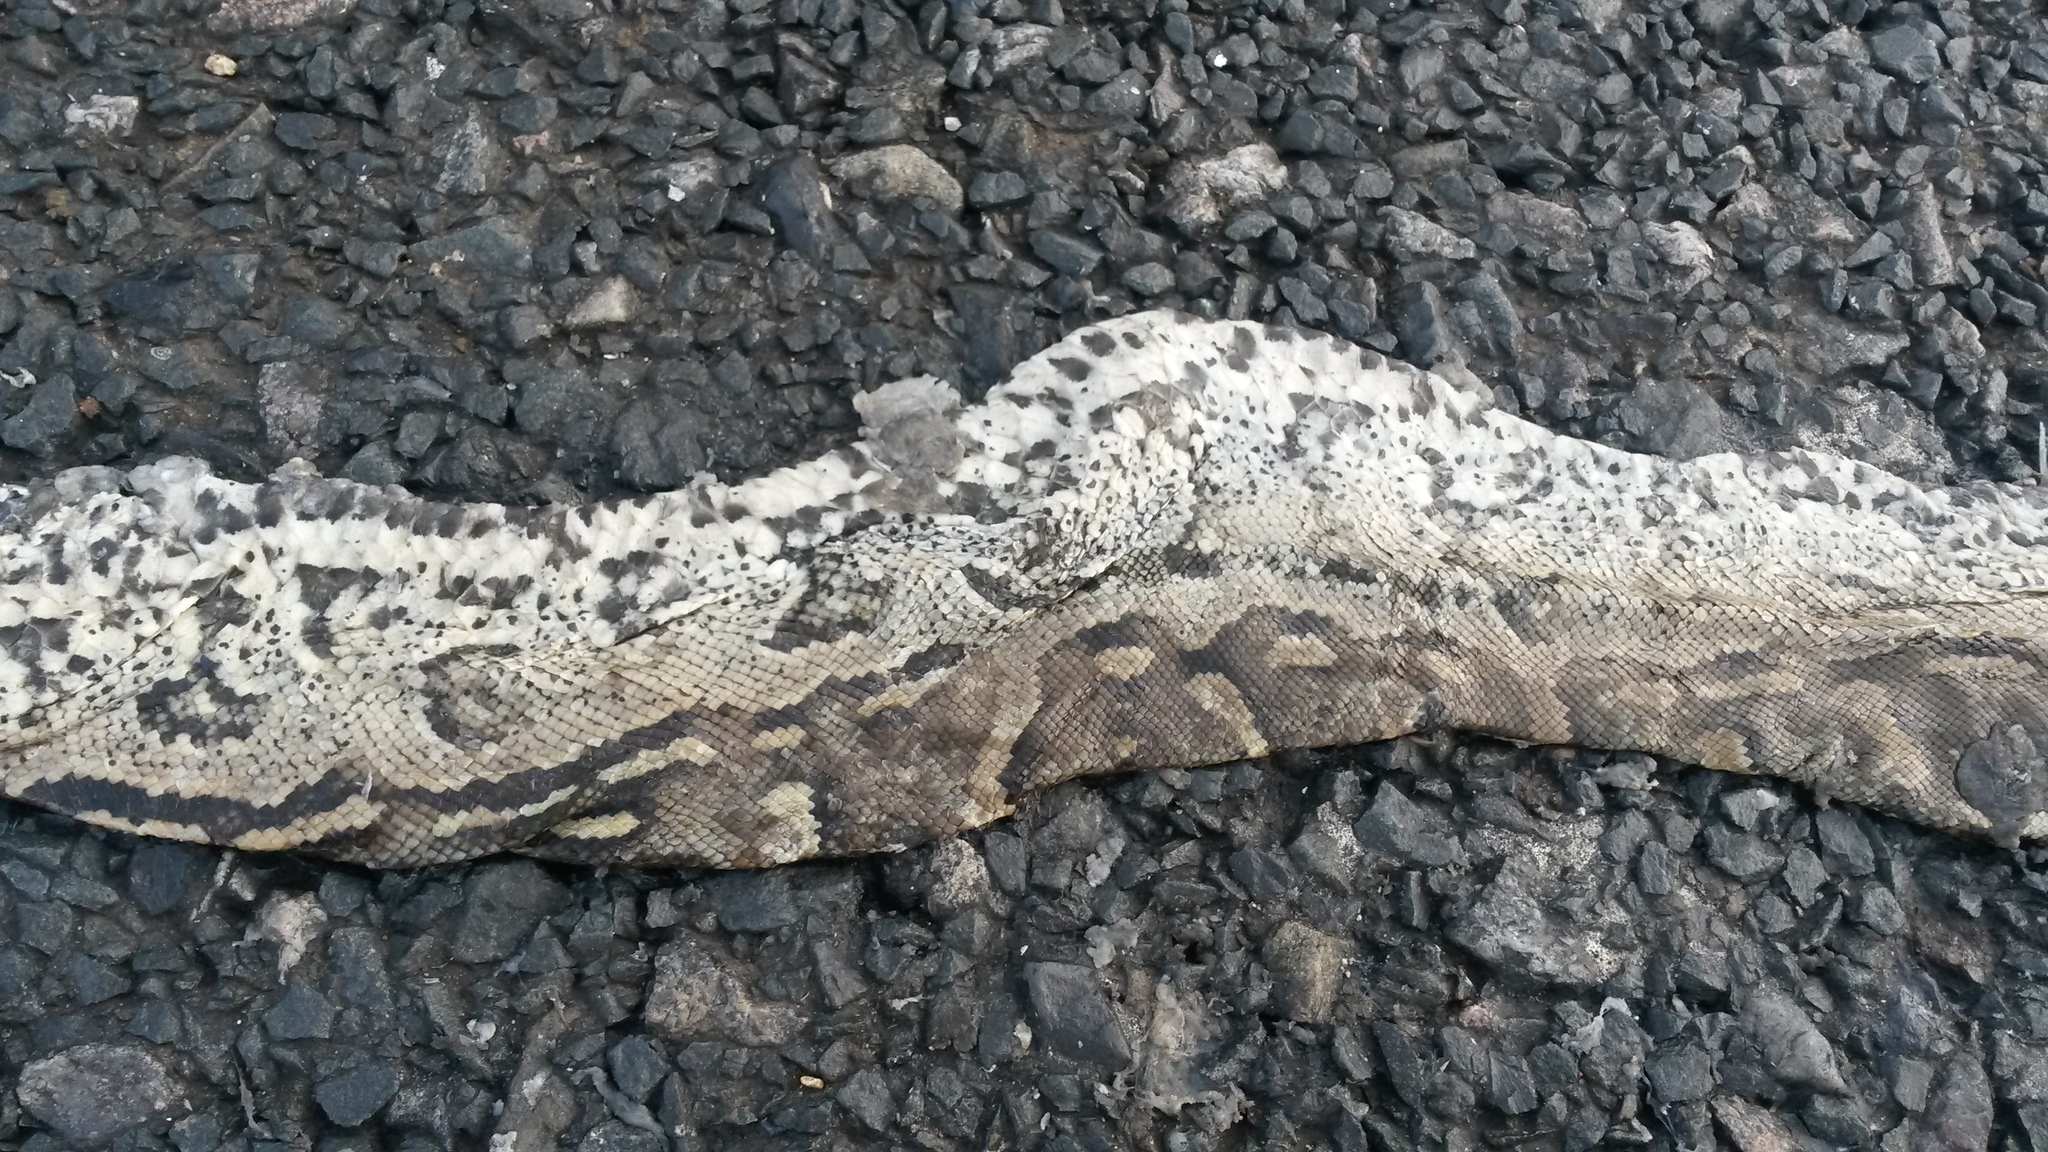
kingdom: Animalia
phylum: Chordata
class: Squamata
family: Pythonidae
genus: Python
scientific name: Python natalensis
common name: Southern african rock python
